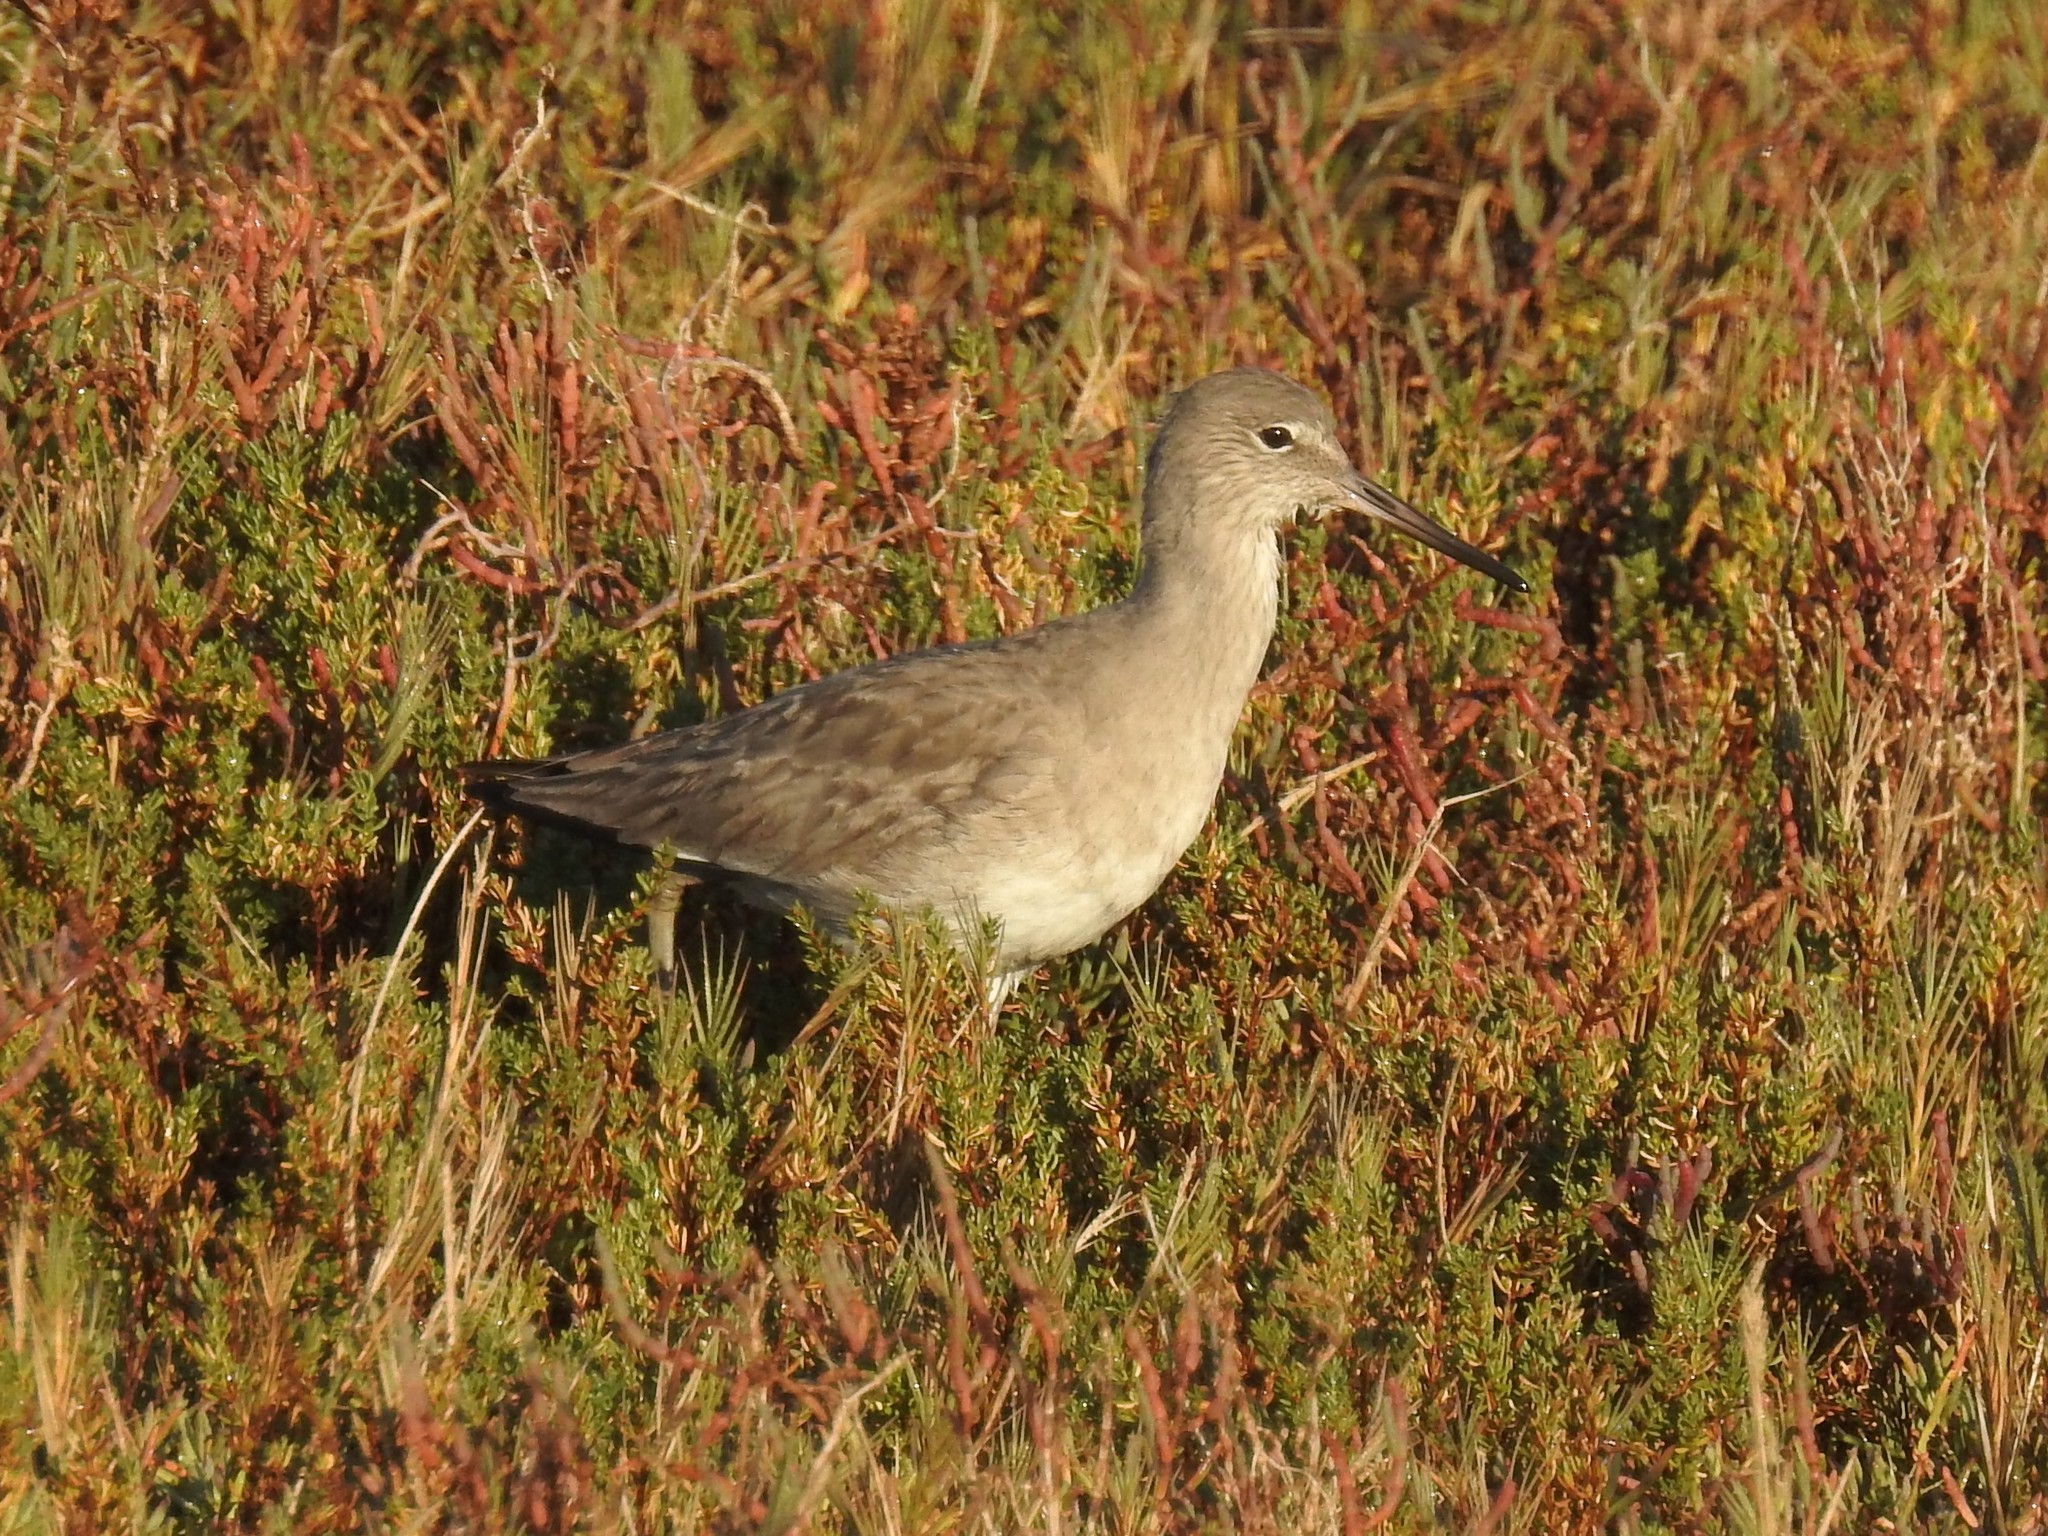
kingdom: Animalia
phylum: Chordata
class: Aves
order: Charadriiformes
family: Scolopacidae
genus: Tringa
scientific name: Tringa semipalmata
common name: Willet
